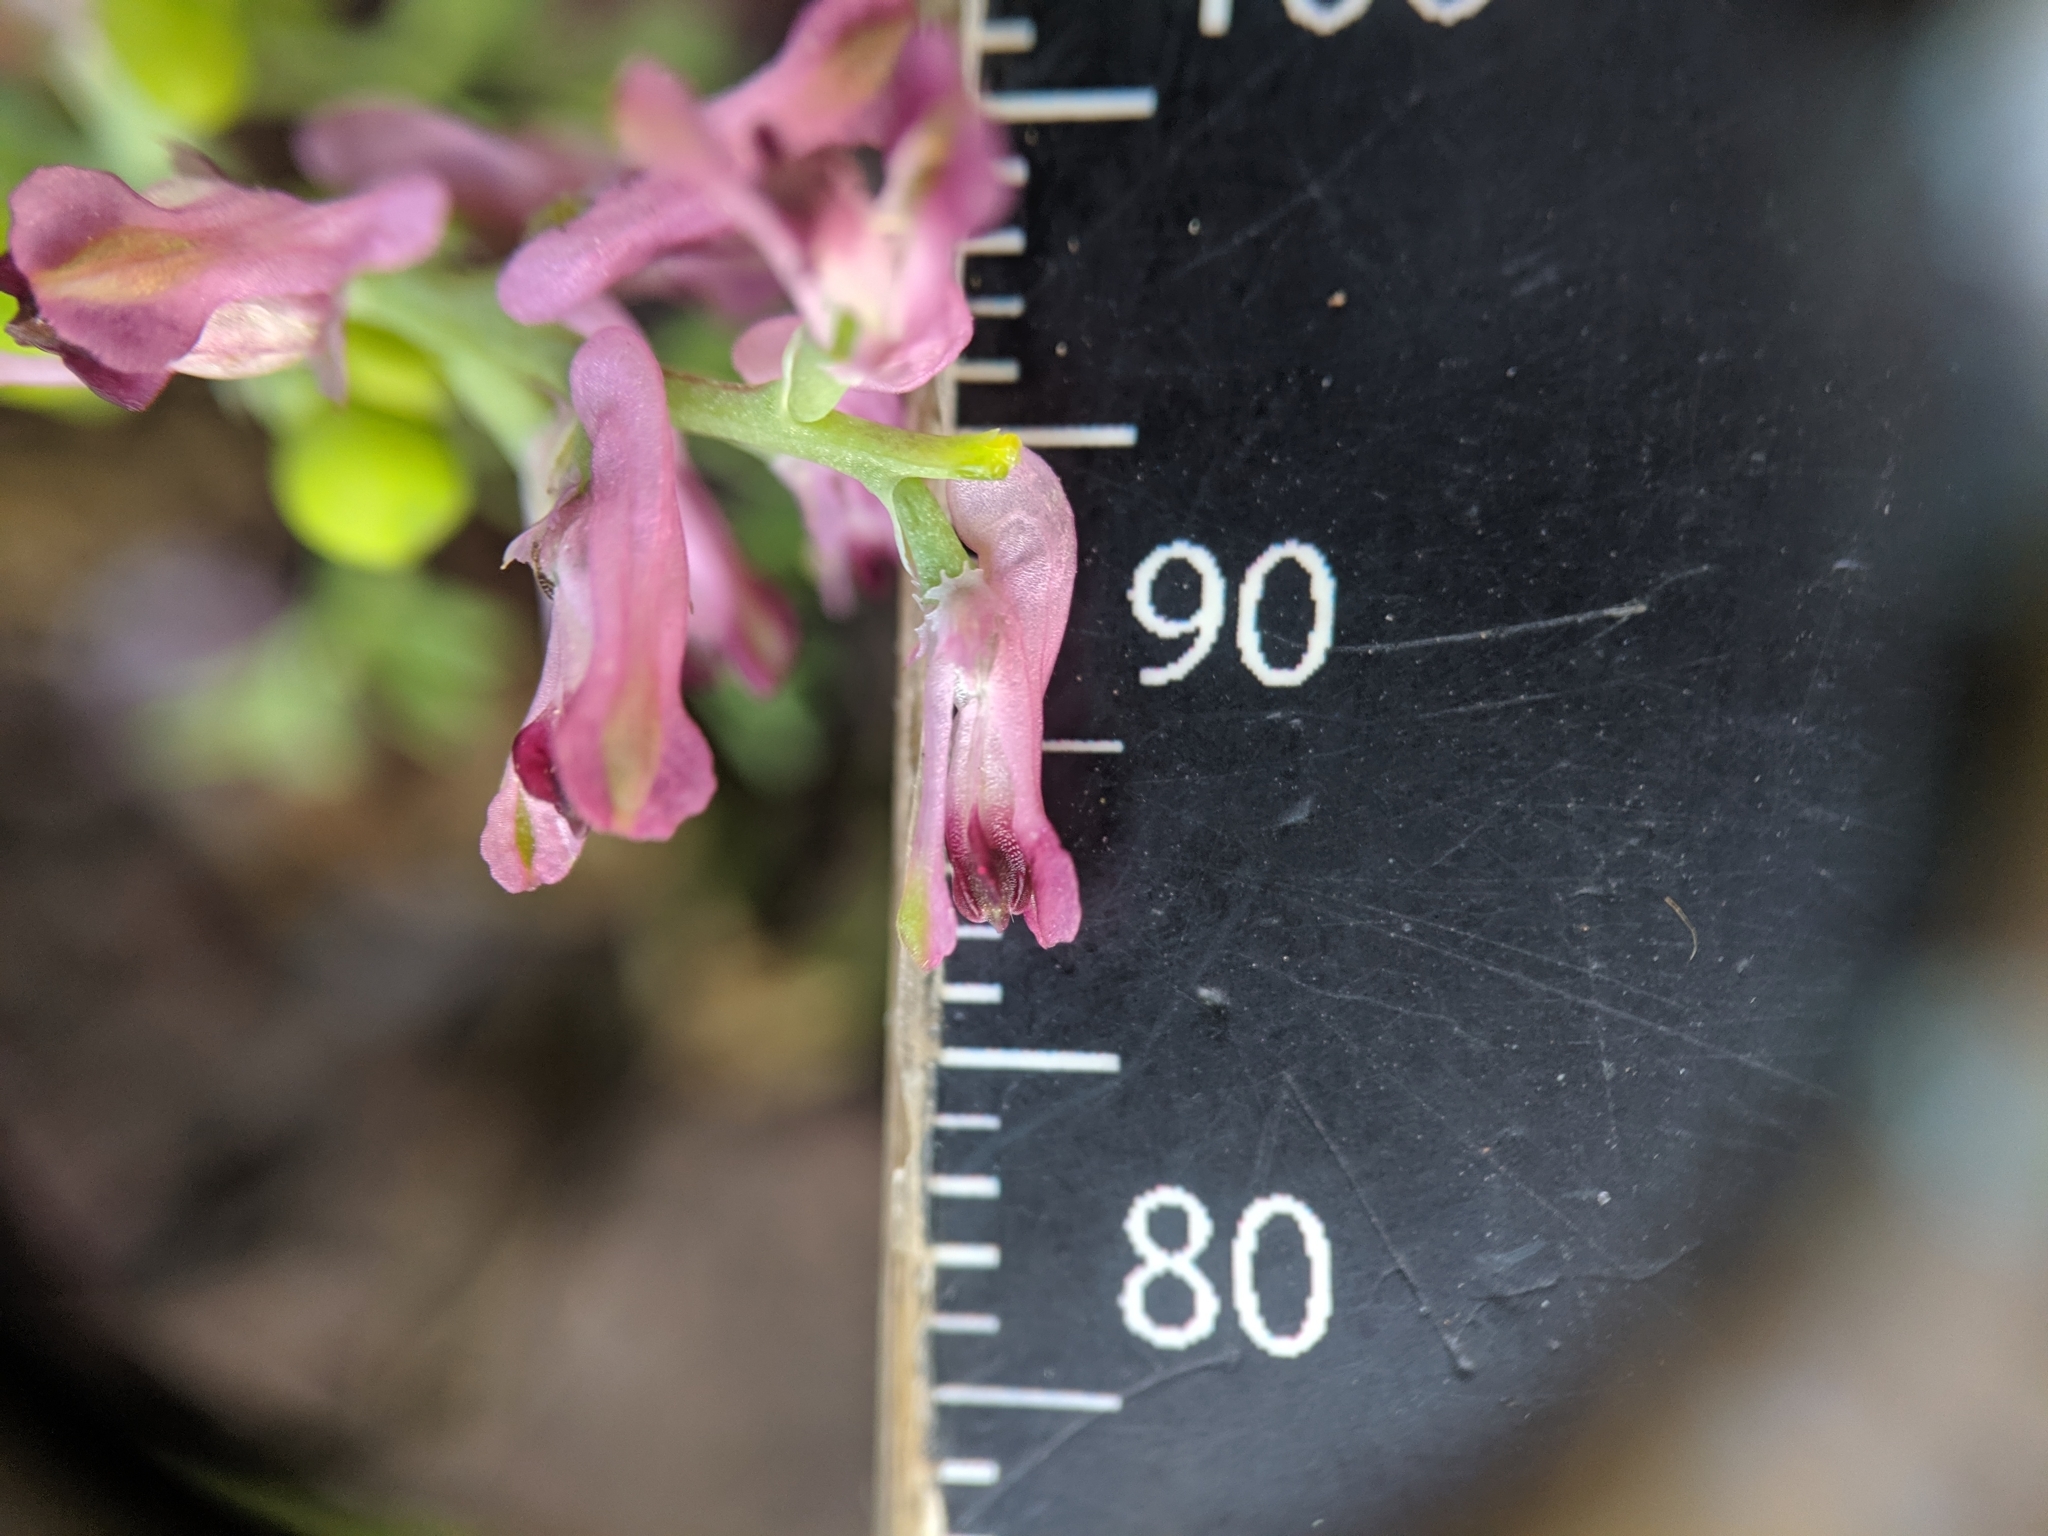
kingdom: Plantae
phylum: Tracheophyta
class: Magnoliopsida
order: Ranunculales
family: Papaveraceae
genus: Fumaria
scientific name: Fumaria officinalis
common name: Common fumitory
